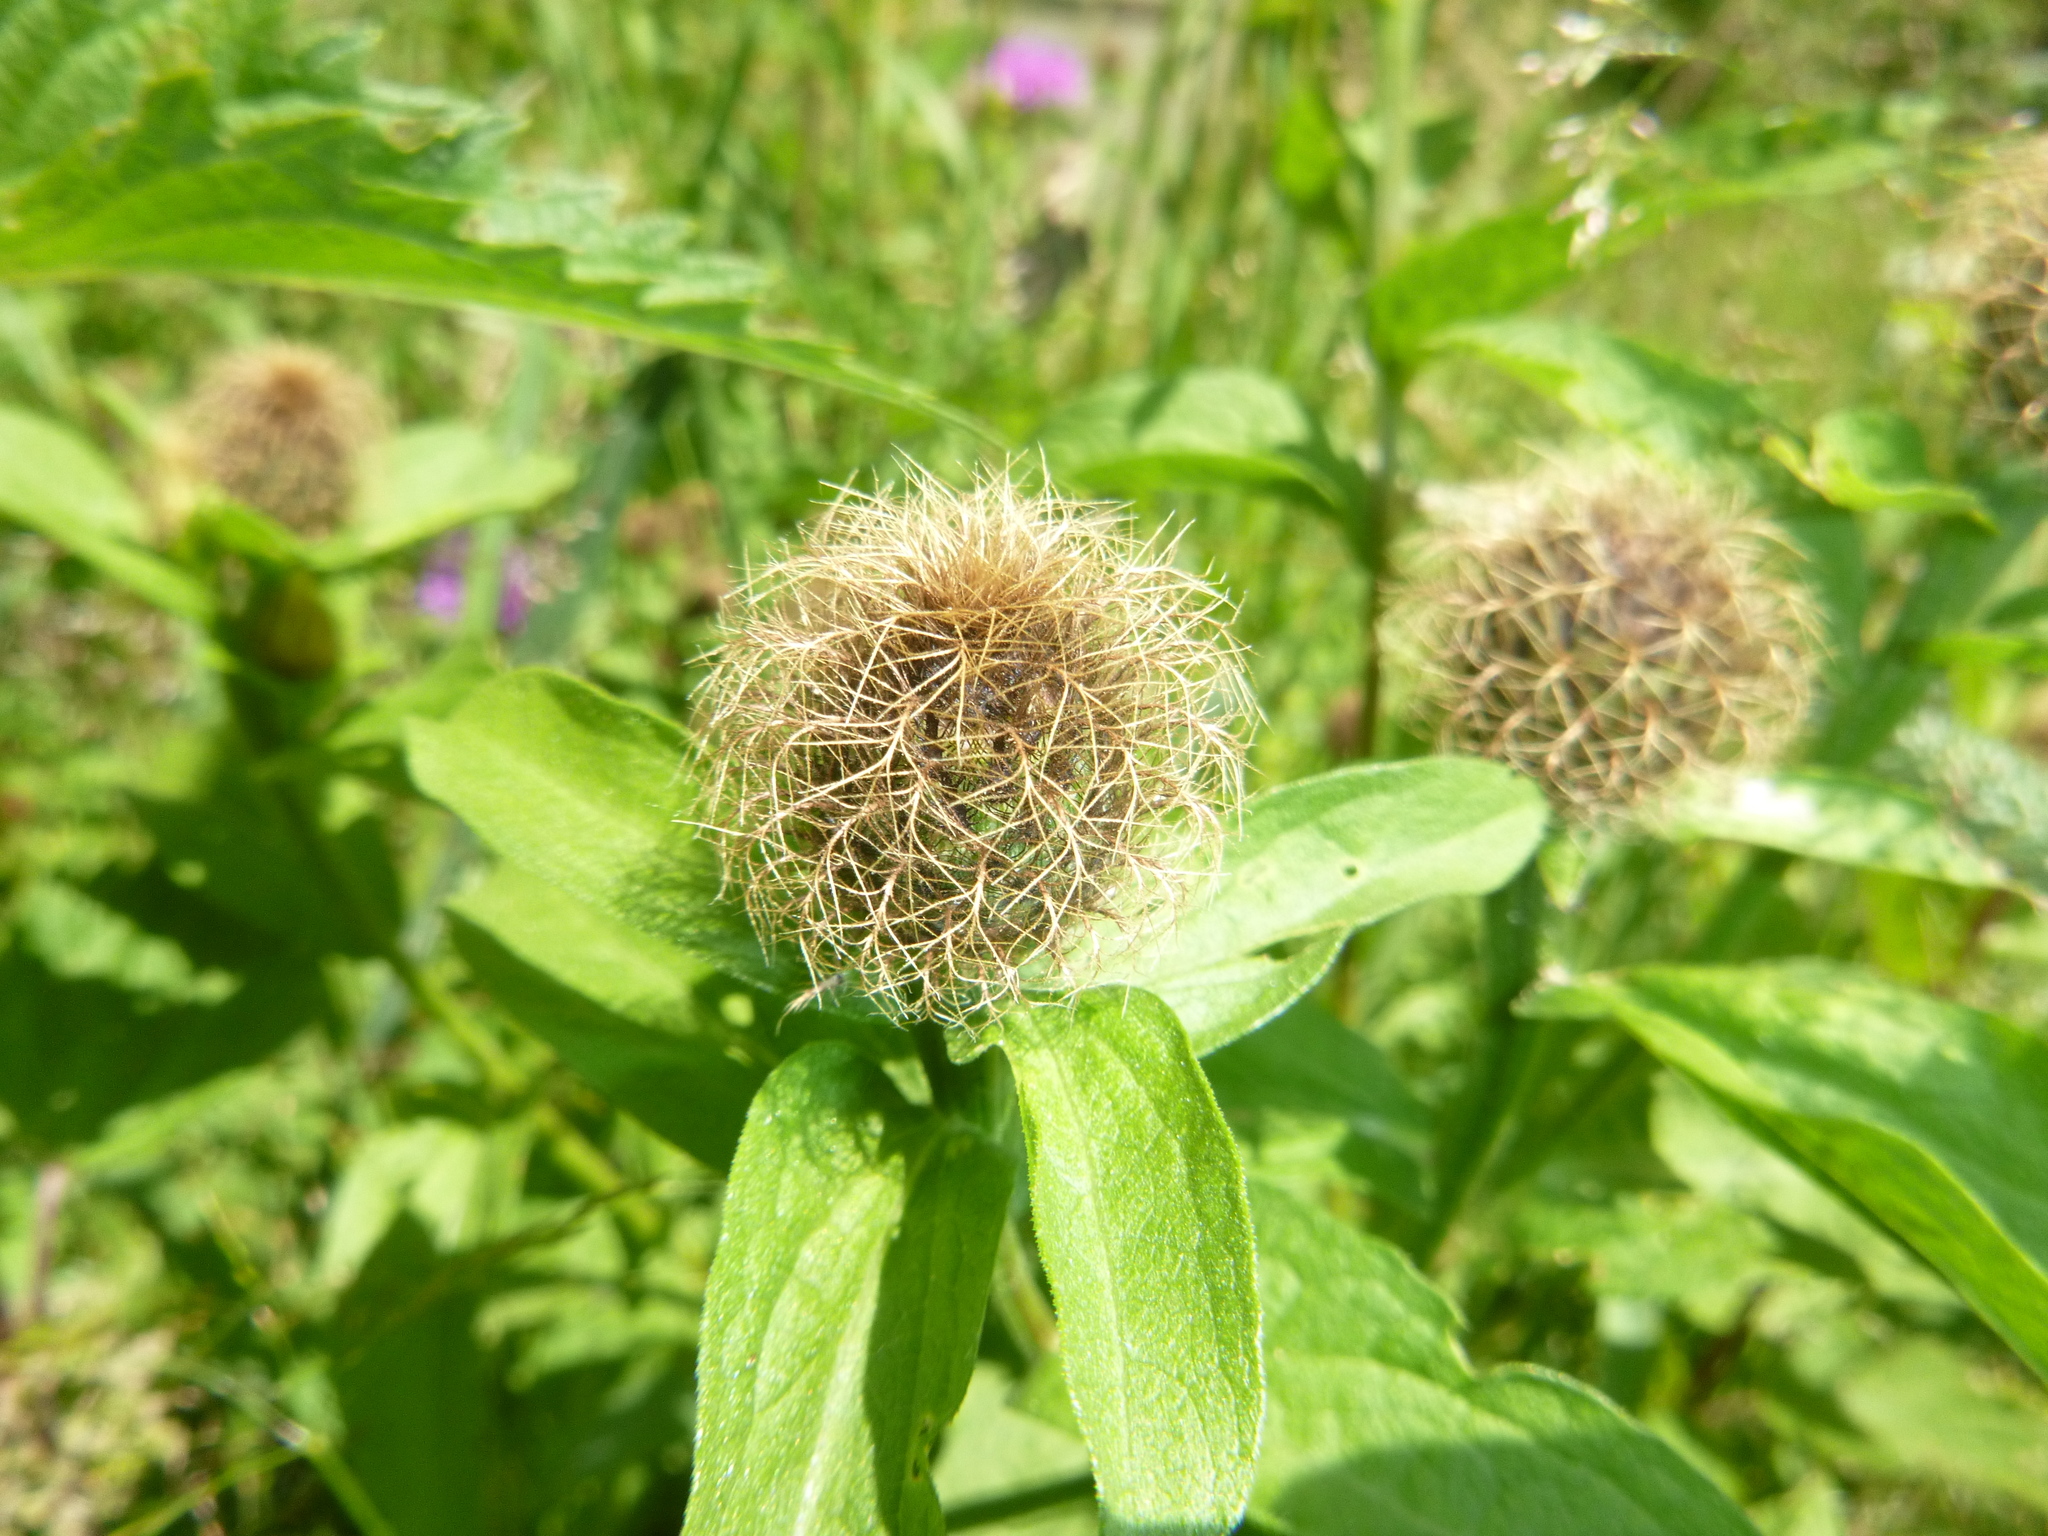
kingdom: Plantae
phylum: Tracheophyta
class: Magnoliopsida
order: Asterales
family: Asteraceae
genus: Centaurea
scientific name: Centaurea phrygia
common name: Wig knapweed
